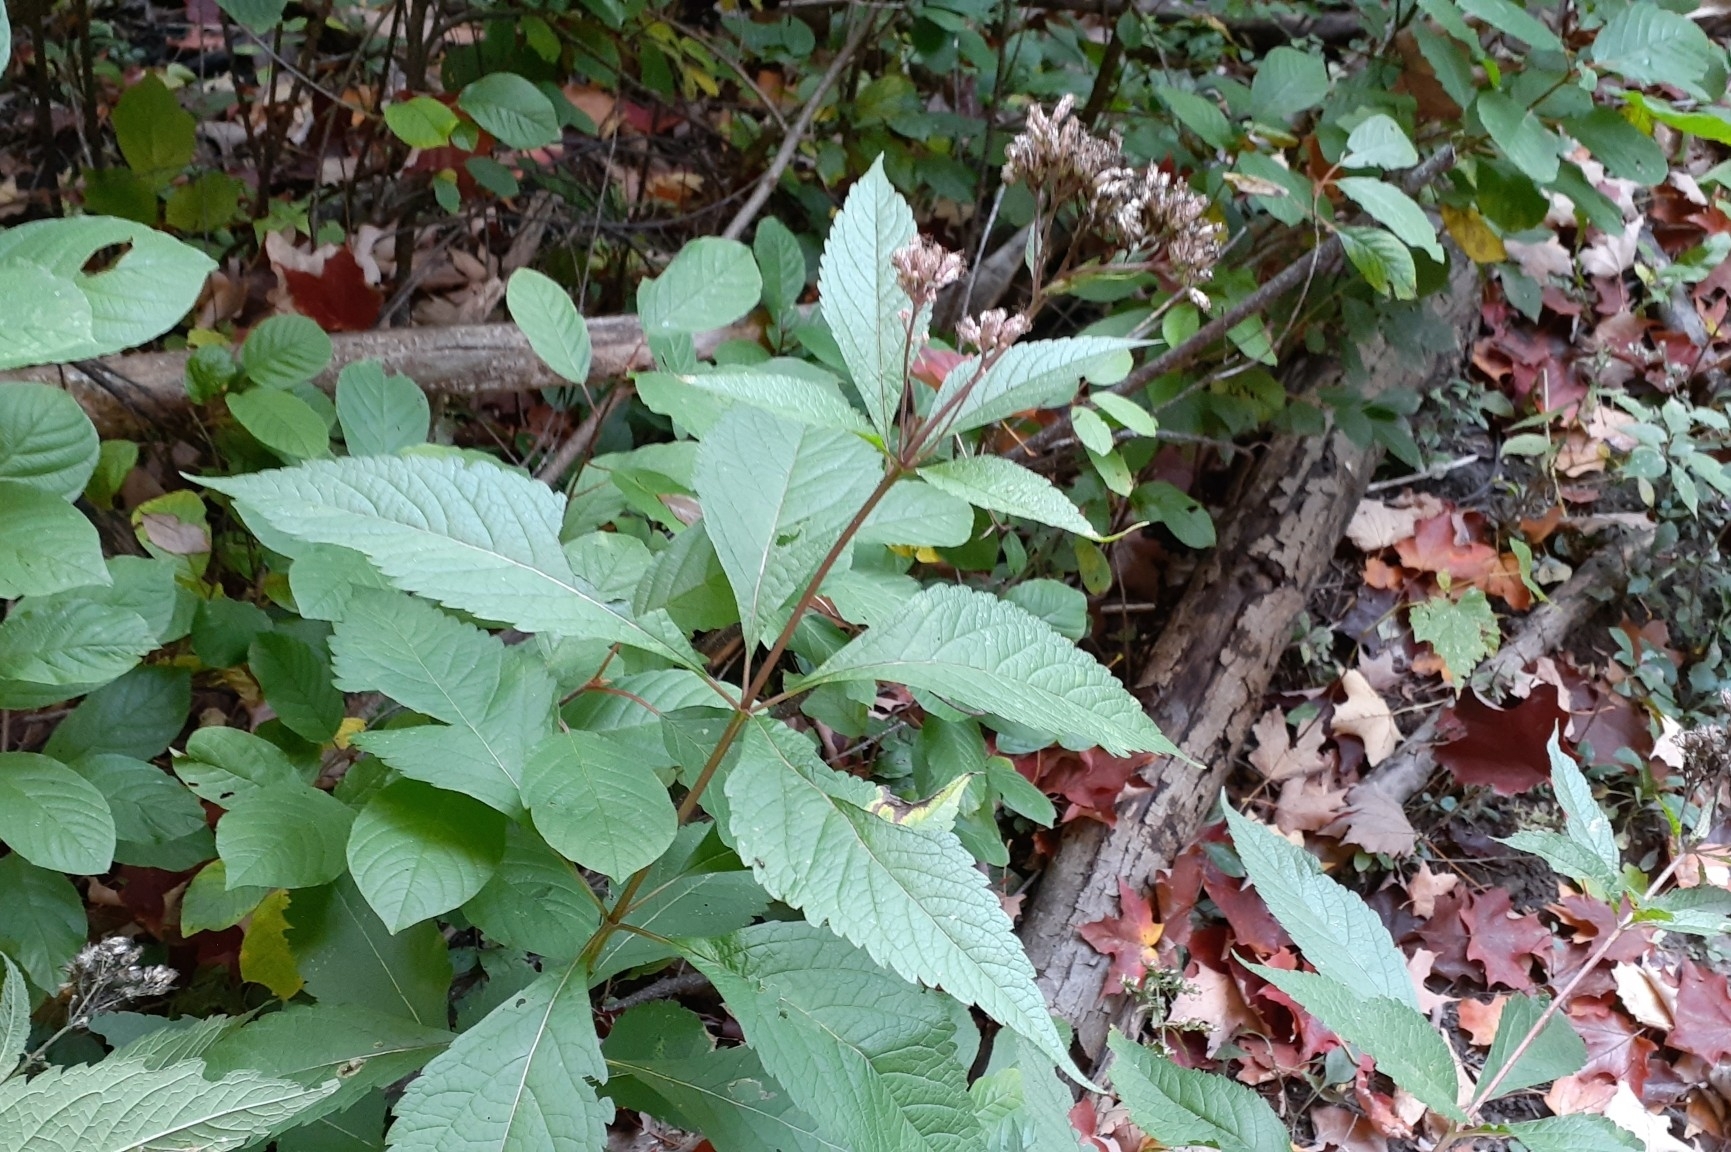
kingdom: Plantae
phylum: Tracheophyta
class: Magnoliopsida
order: Asterales
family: Asteraceae
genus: Eutrochium
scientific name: Eutrochium maculatum
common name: Spotted joe pye weed
